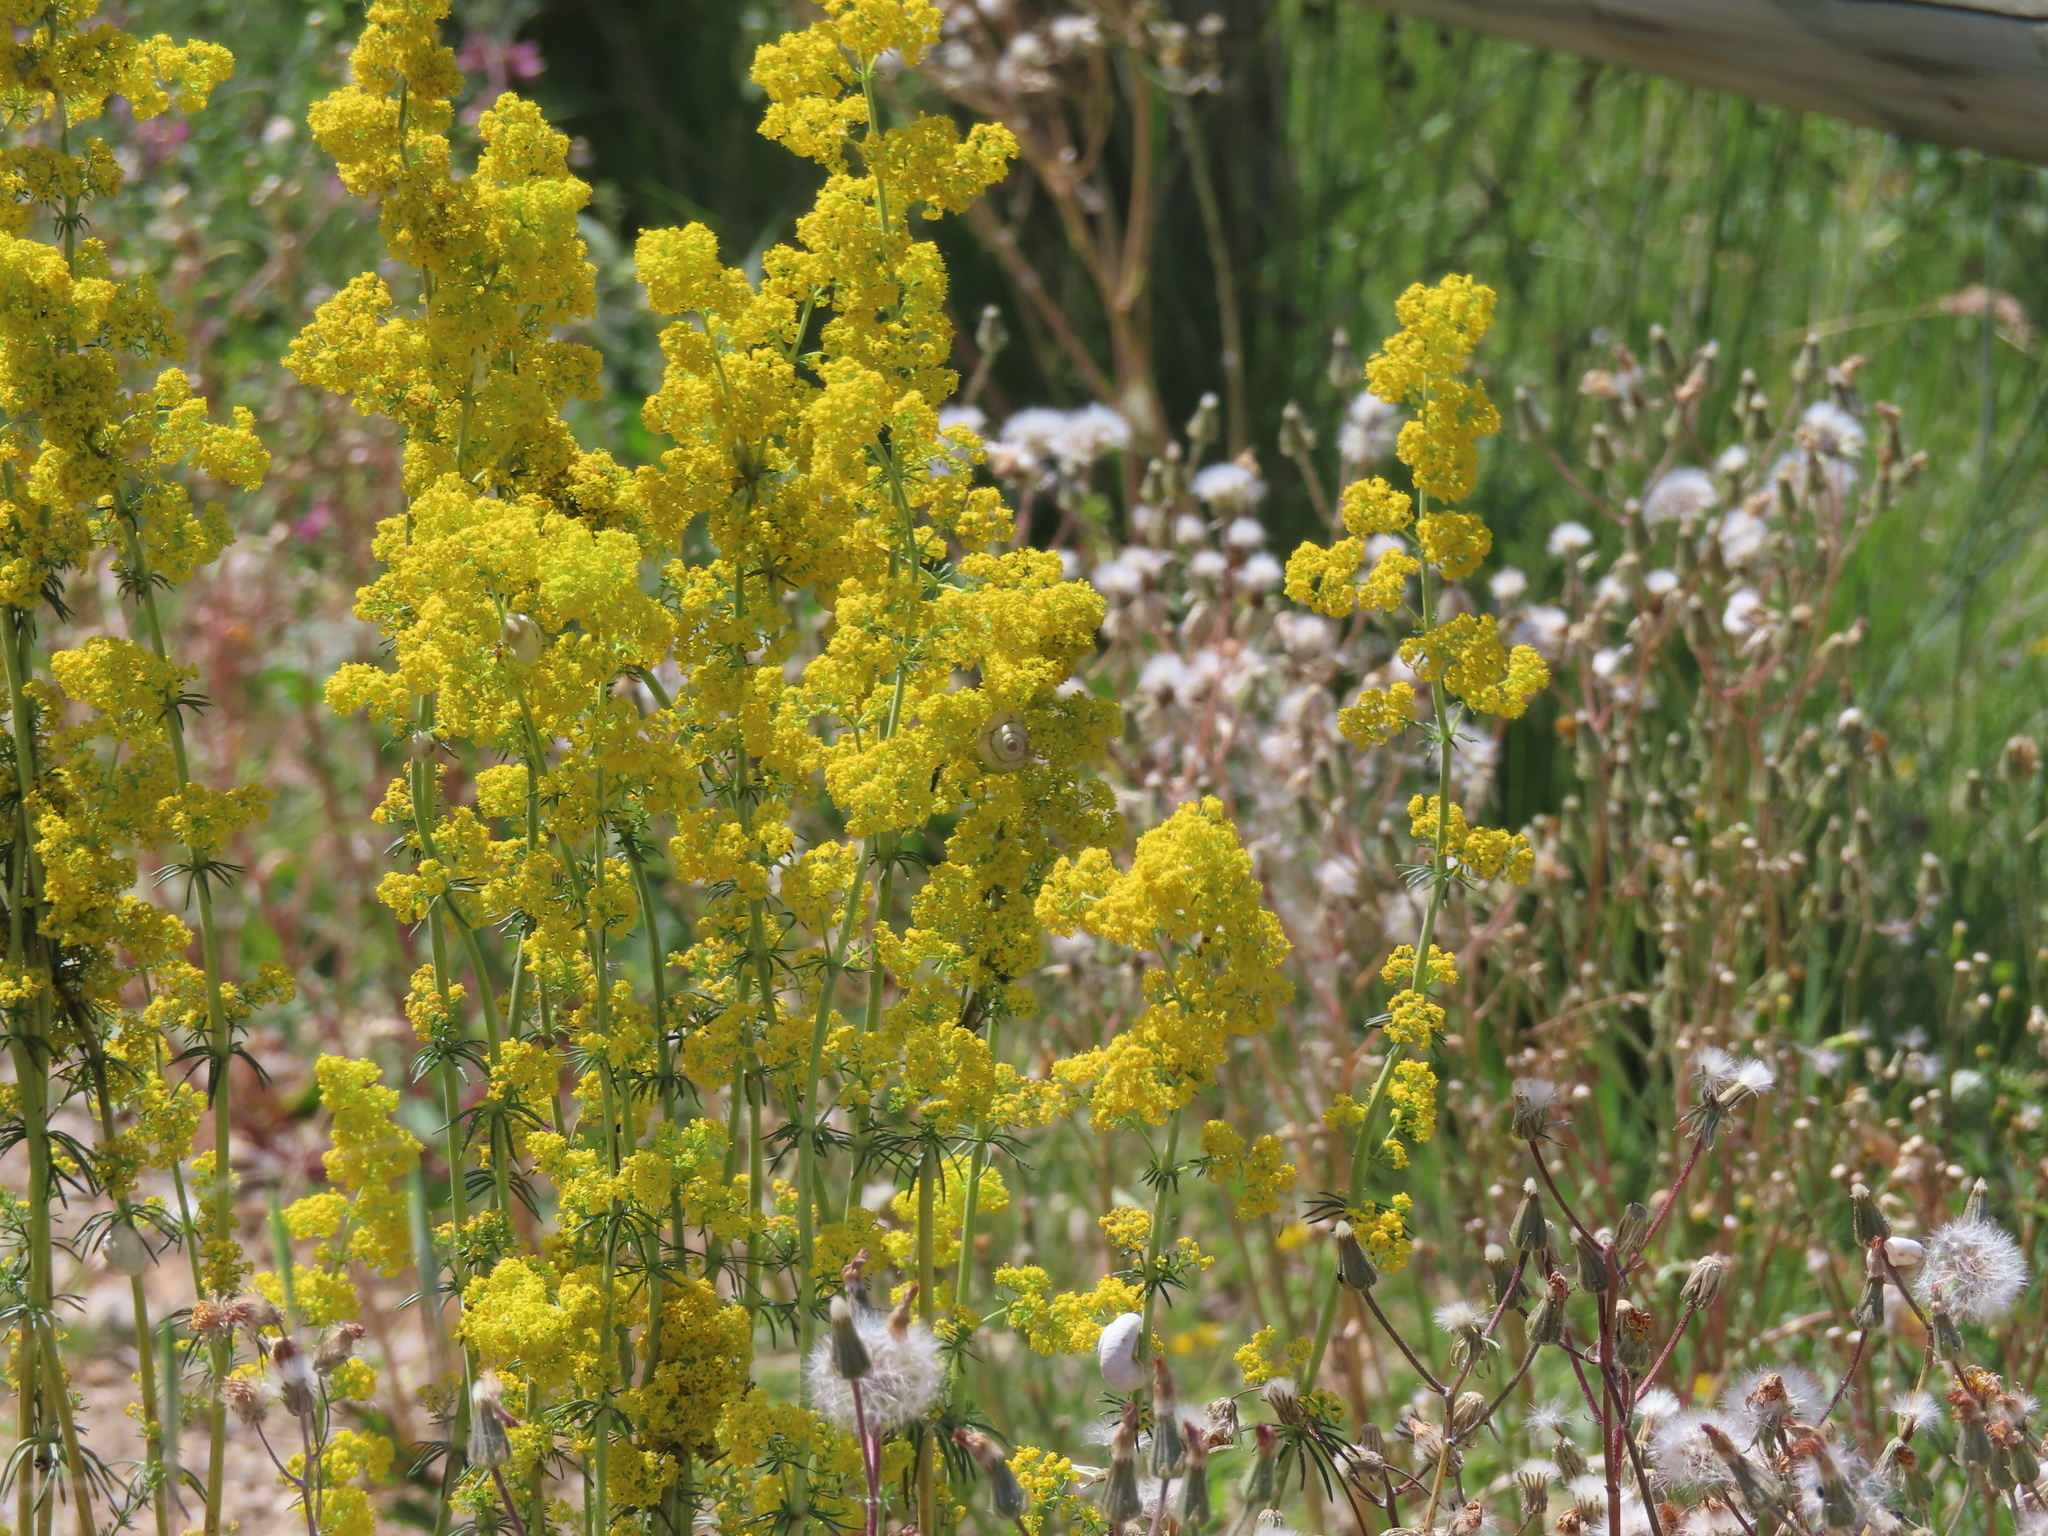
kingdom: Plantae
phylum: Tracheophyta
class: Magnoliopsida
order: Gentianales
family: Rubiaceae
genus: Galium
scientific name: Galium verum
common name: Lady's bedstraw
